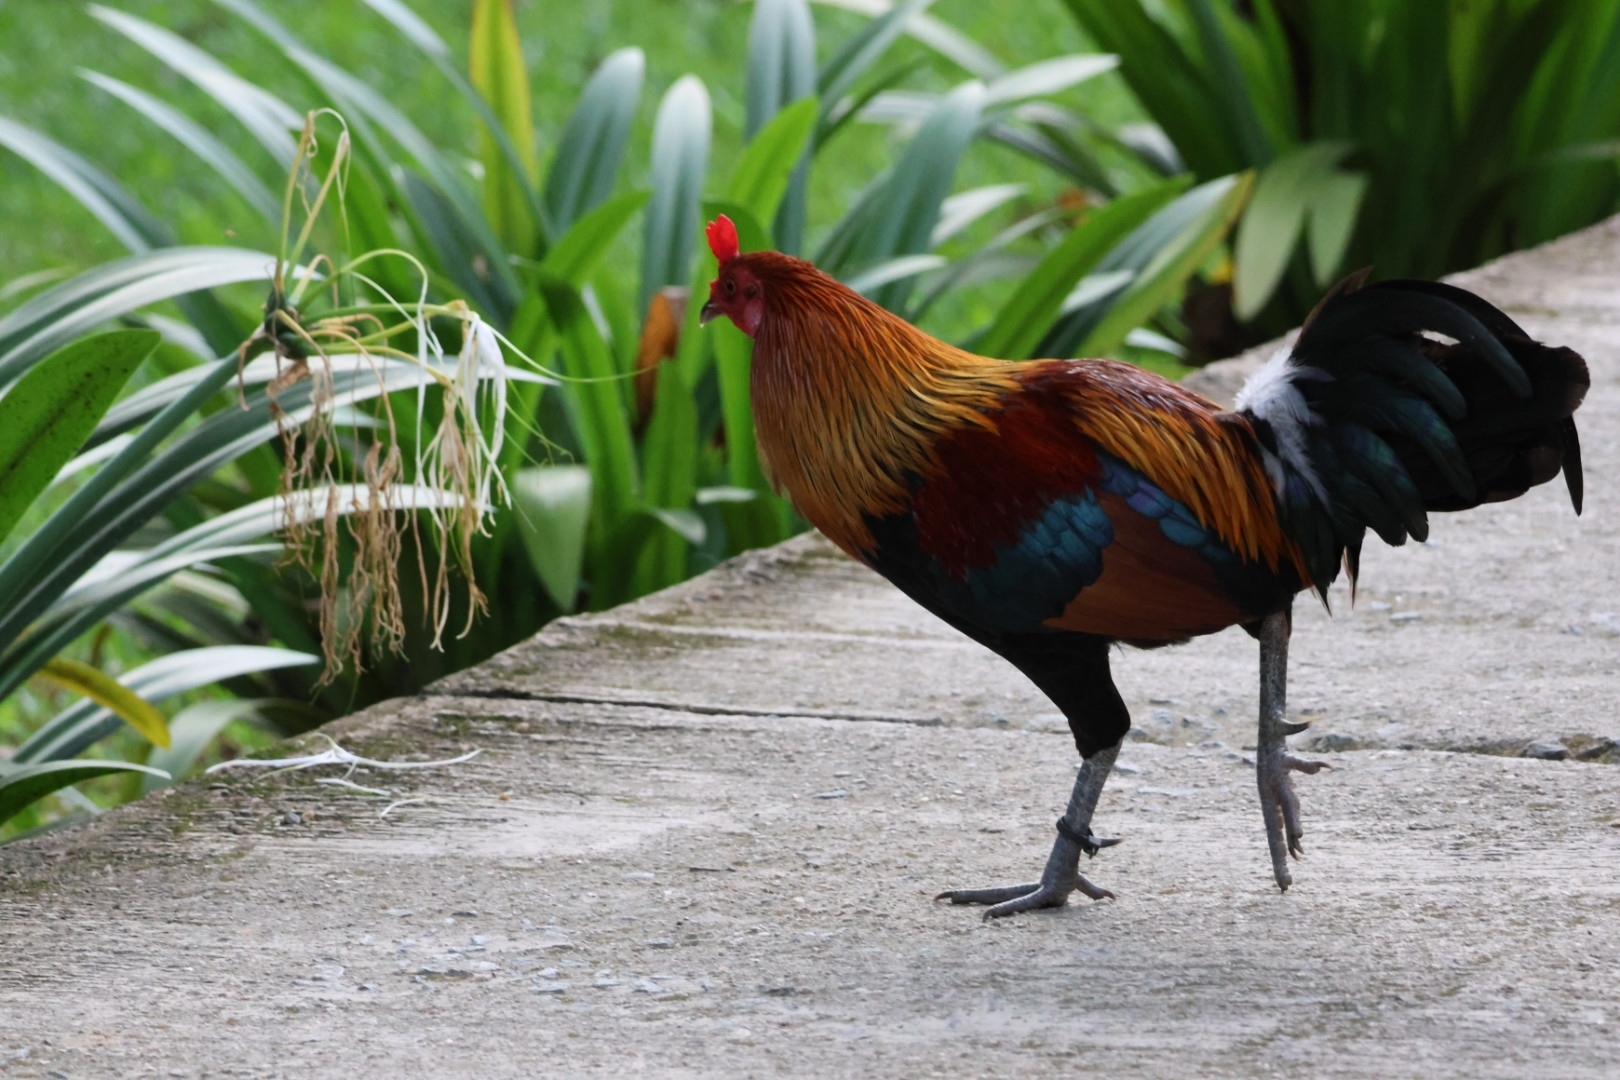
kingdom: Animalia
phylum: Chordata
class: Aves
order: Galliformes
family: Phasianidae
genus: Gallus
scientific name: Gallus gallus
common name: Red junglefowl
